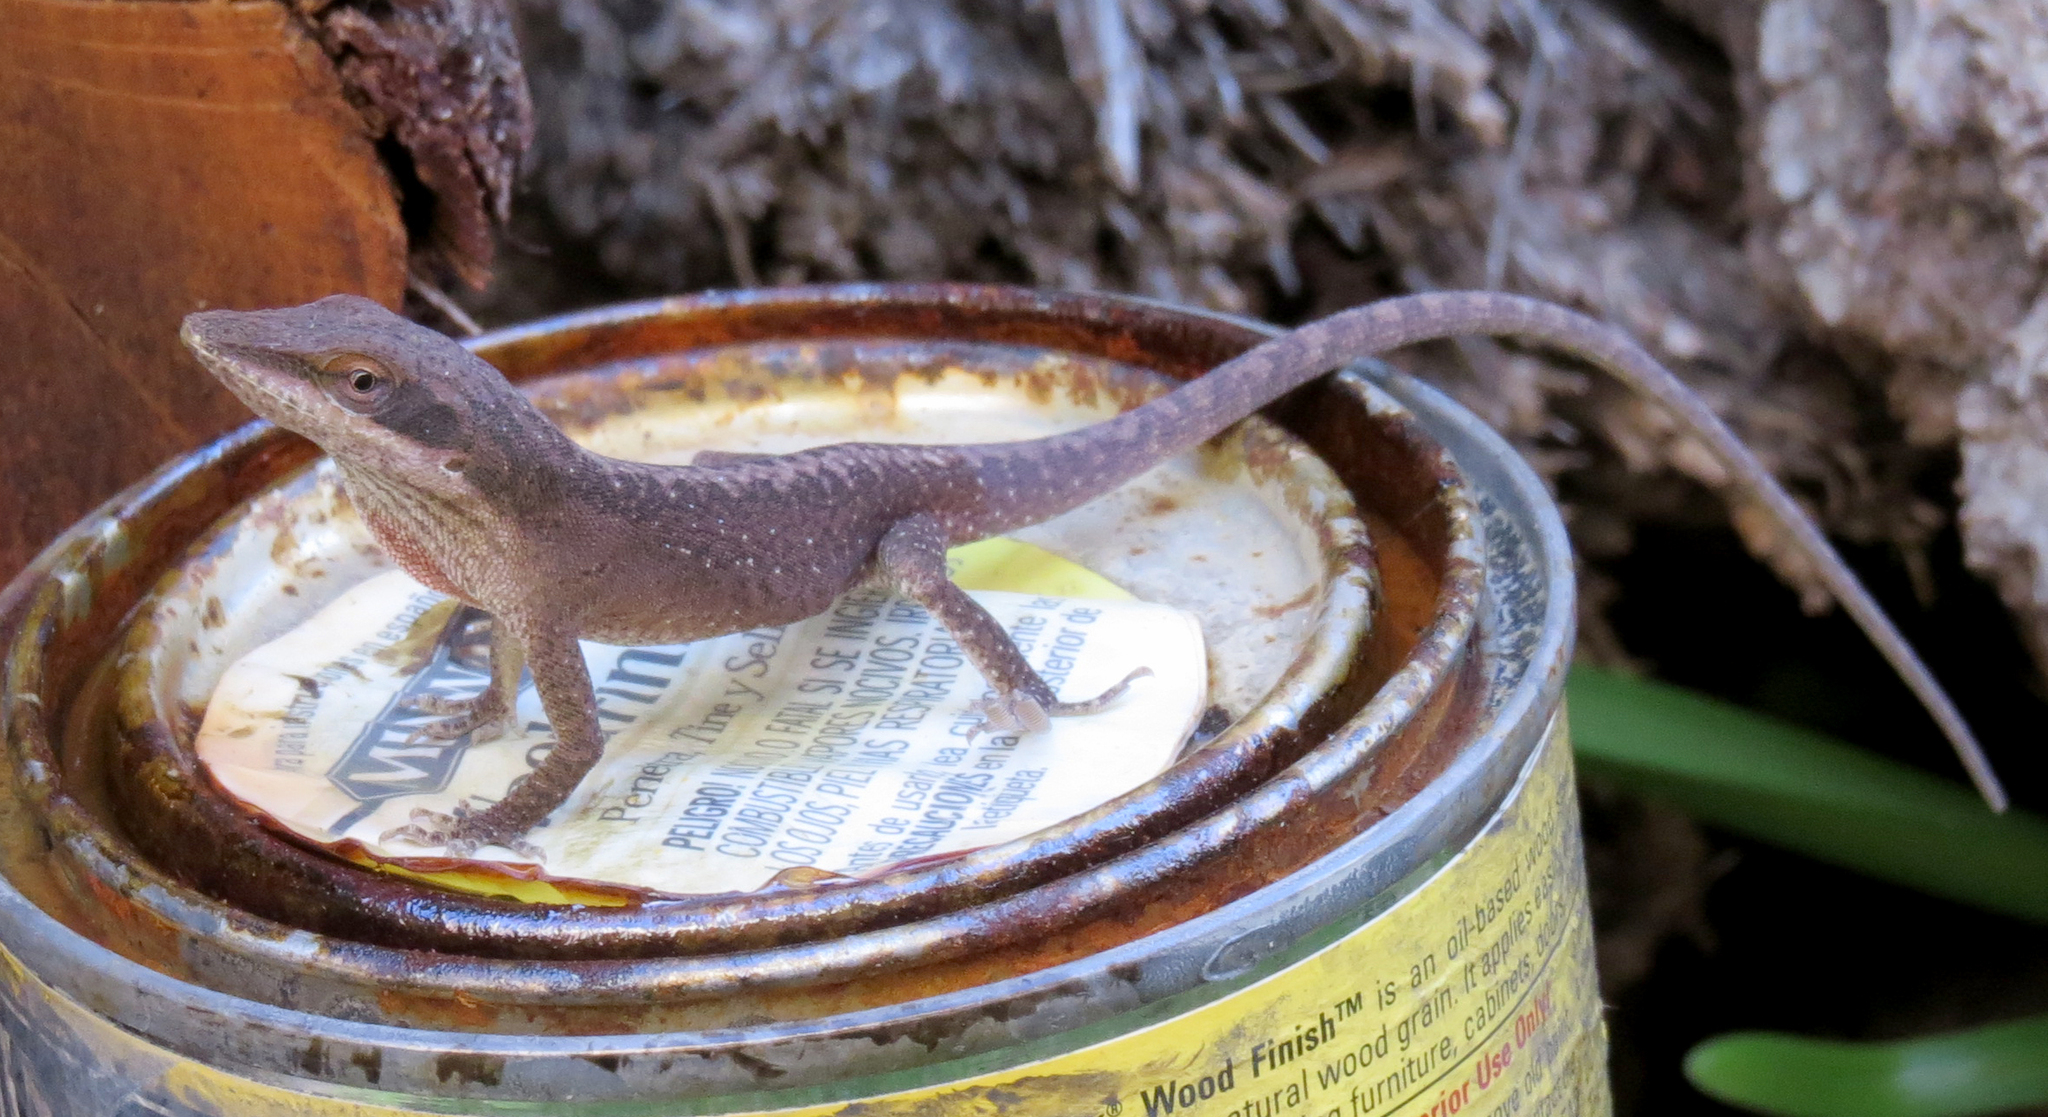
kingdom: Animalia
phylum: Chordata
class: Squamata
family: Dactyloidae
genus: Anolis
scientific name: Anolis carolinensis
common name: Green anole
